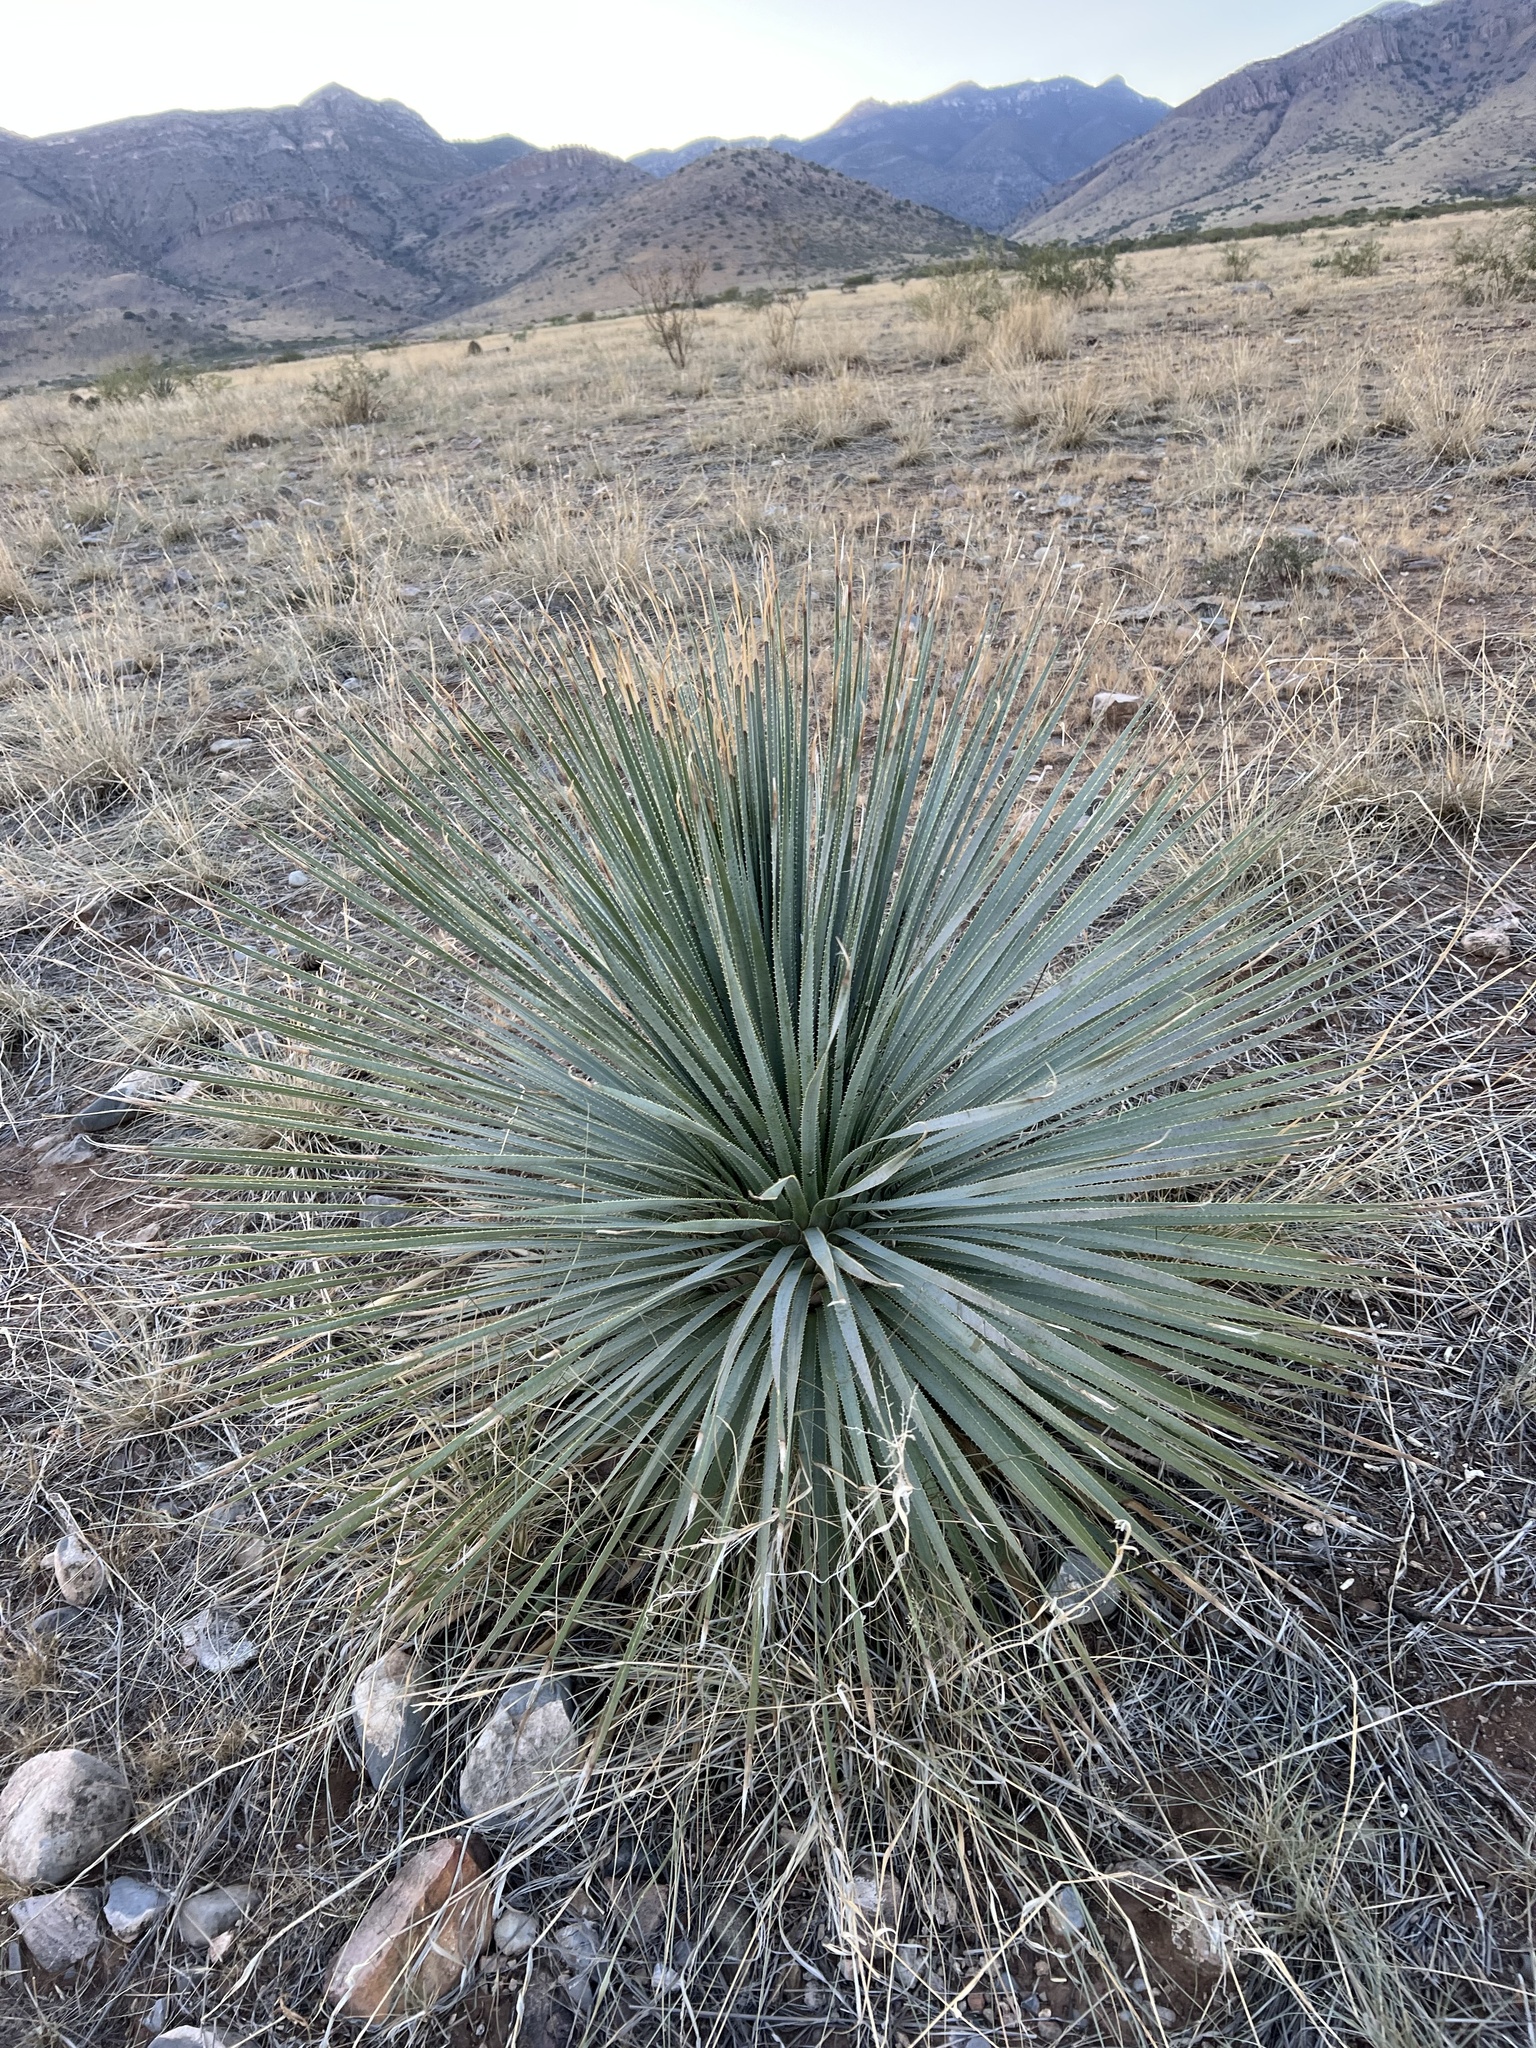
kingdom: Plantae
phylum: Tracheophyta
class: Liliopsida
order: Asparagales
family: Asparagaceae
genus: Dasylirion
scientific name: Dasylirion wheeleri
